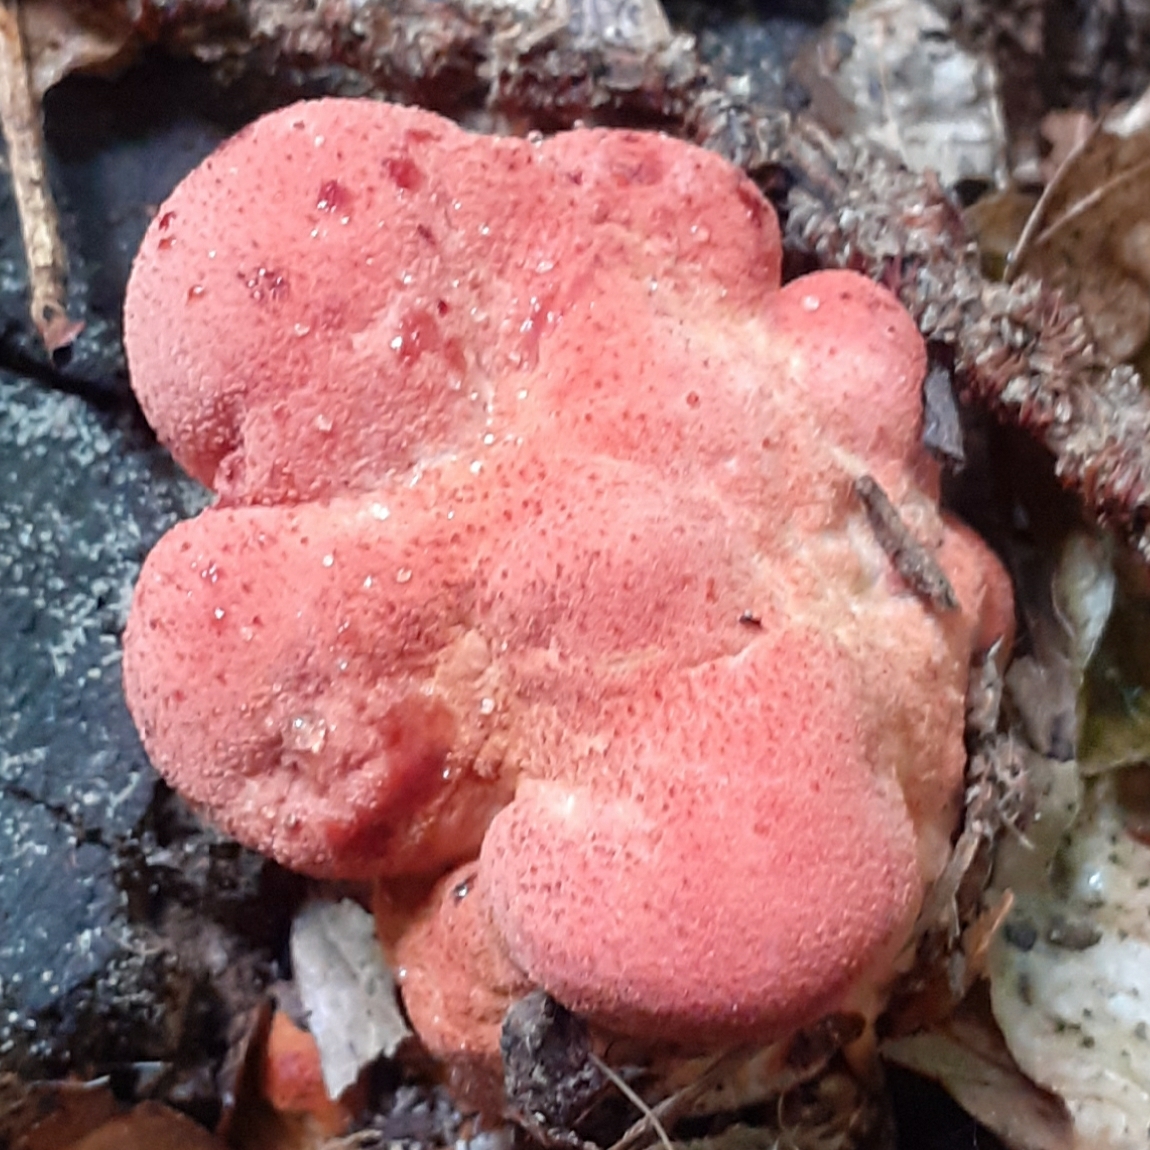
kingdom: Fungi
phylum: Basidiomycota
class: Agaricomycetes
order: Agaricales
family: Fistulinaceae
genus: Fistulina
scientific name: Fistulina hepatica
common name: Beef-steak fungus
